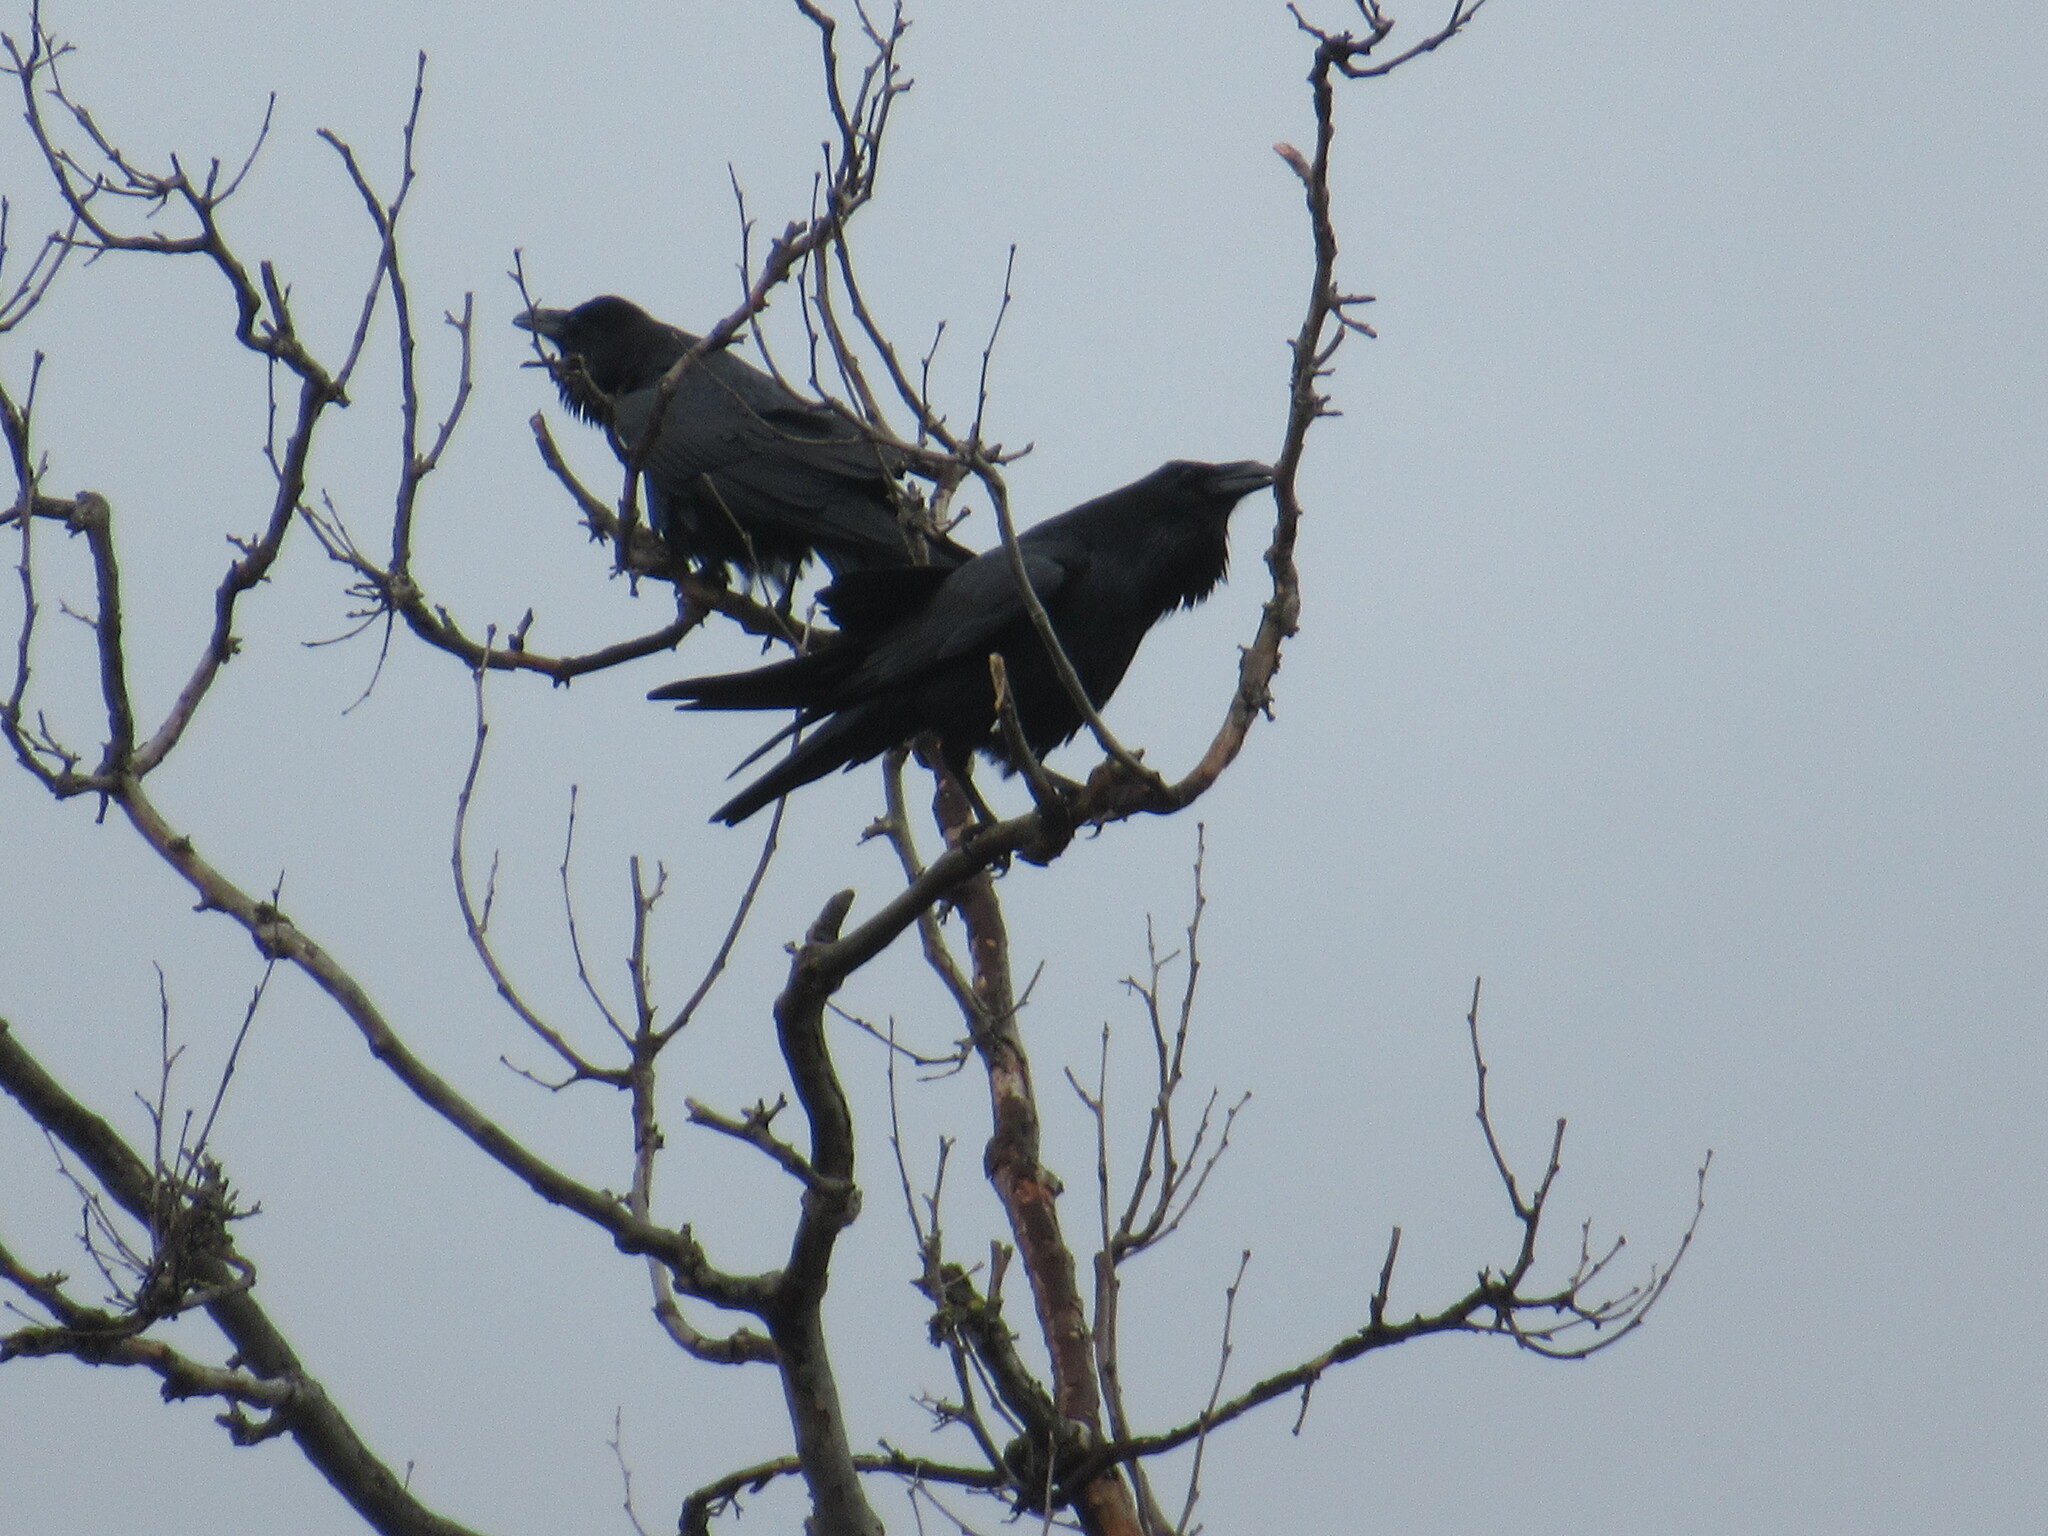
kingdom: Animalia
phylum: Chordata
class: Aves
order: Passeriformes
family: Corvidae
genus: Corvus
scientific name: Corvus corax
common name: Common raven
